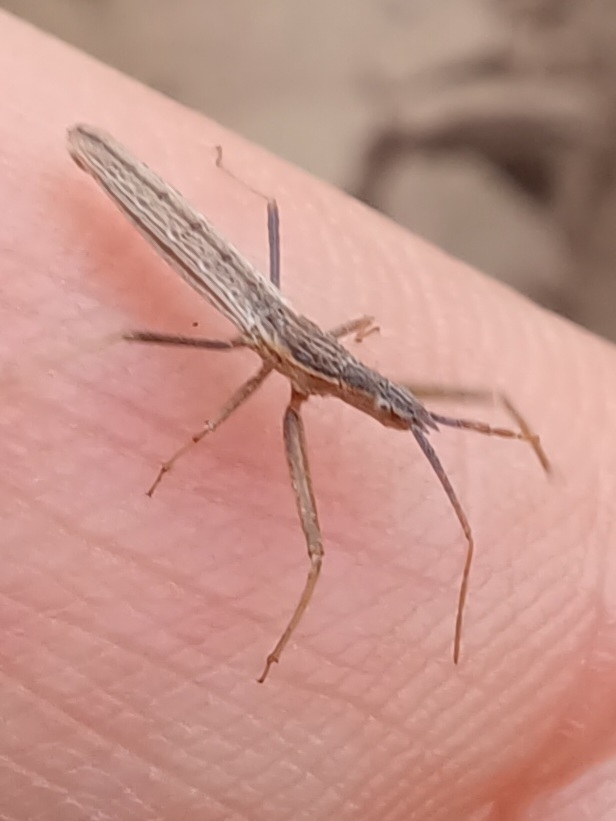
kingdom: Animalia
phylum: Arthropoda
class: Insecta
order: Hemiptera
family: Reduviidae
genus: Dicrotelus
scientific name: Dicrotelus prolixus
